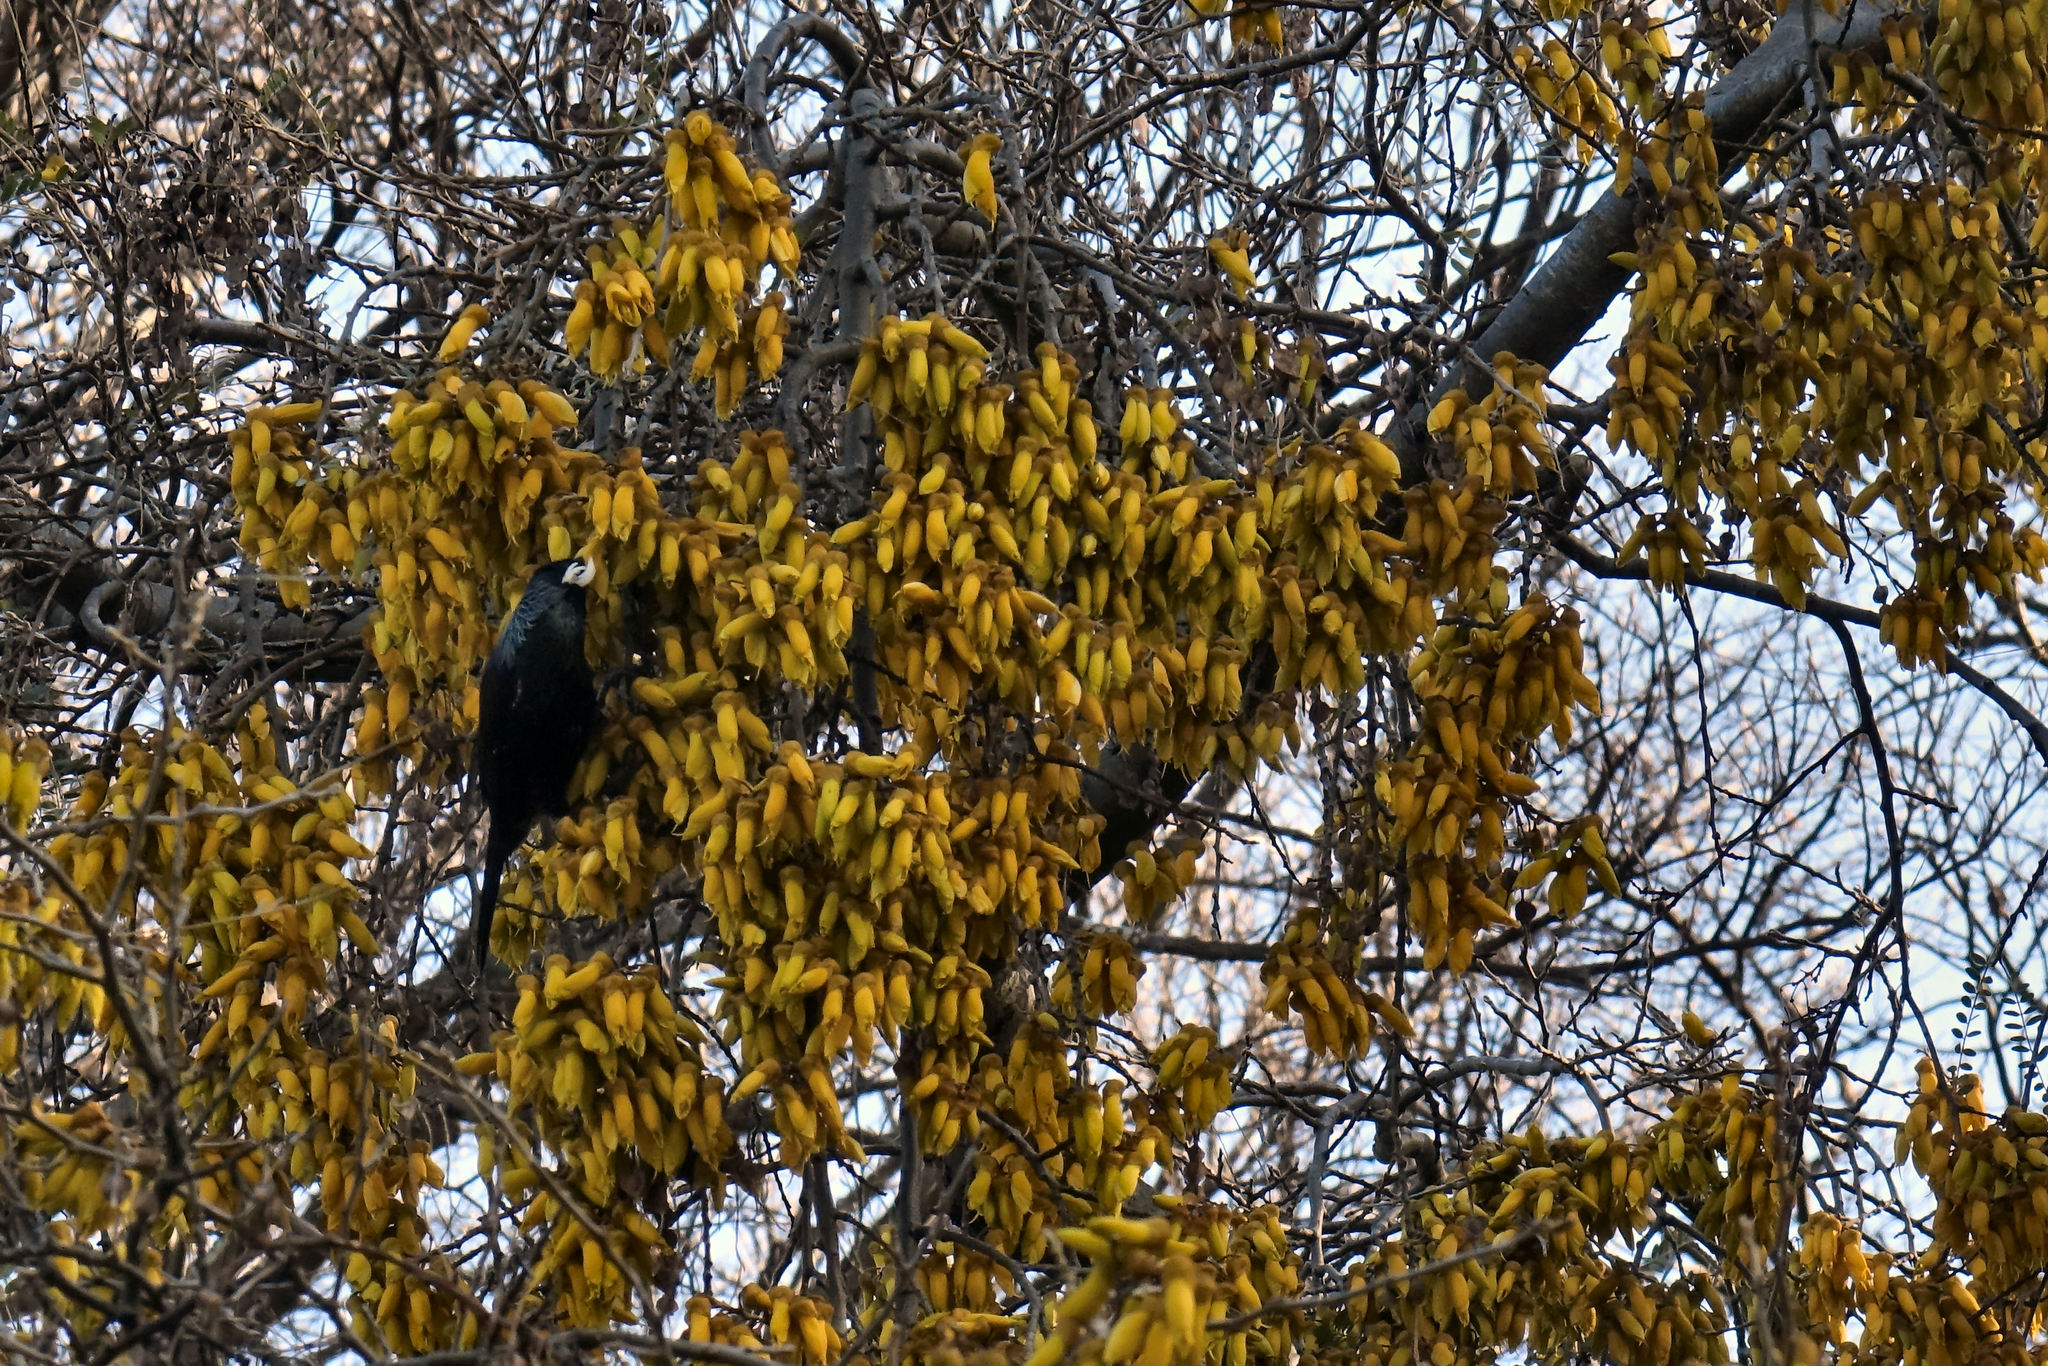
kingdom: Animalia
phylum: Chordata
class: Aves
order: Passeriformes
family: Meliphagidae
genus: Prosthemadera
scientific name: Prosthemadera novaeseelandiae
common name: Tui
